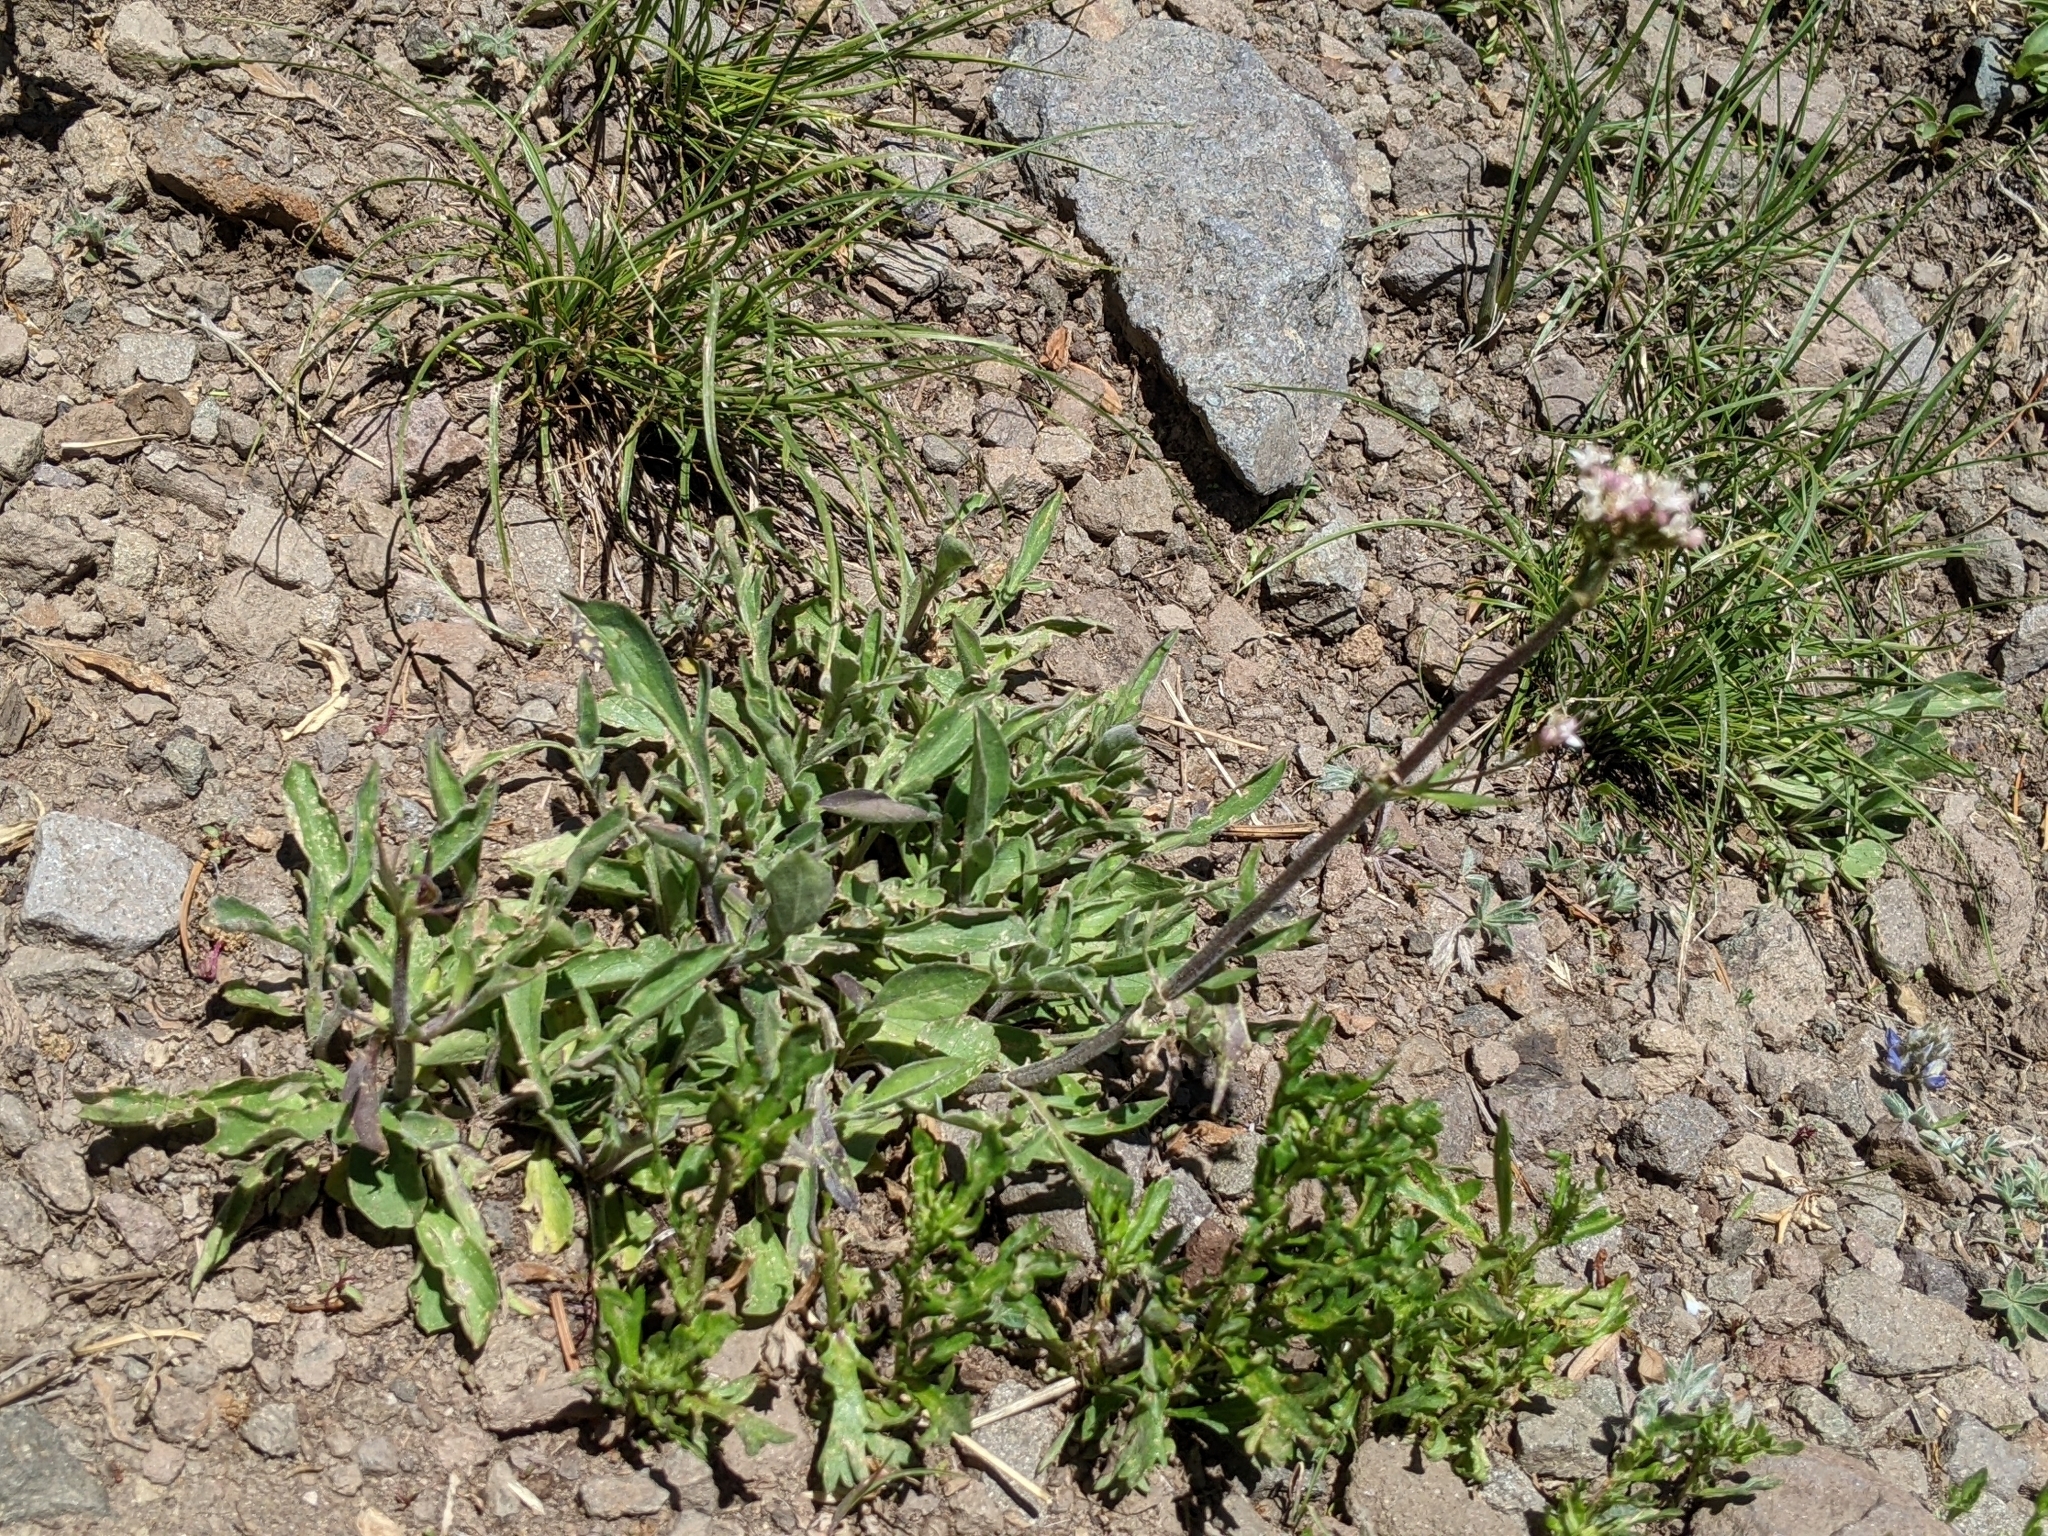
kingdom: Plantae
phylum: Tracheophyta
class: Magnoliopsida
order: Dipsacales
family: Caprifoliaceae
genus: Valeriana
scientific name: Valeriana californica
